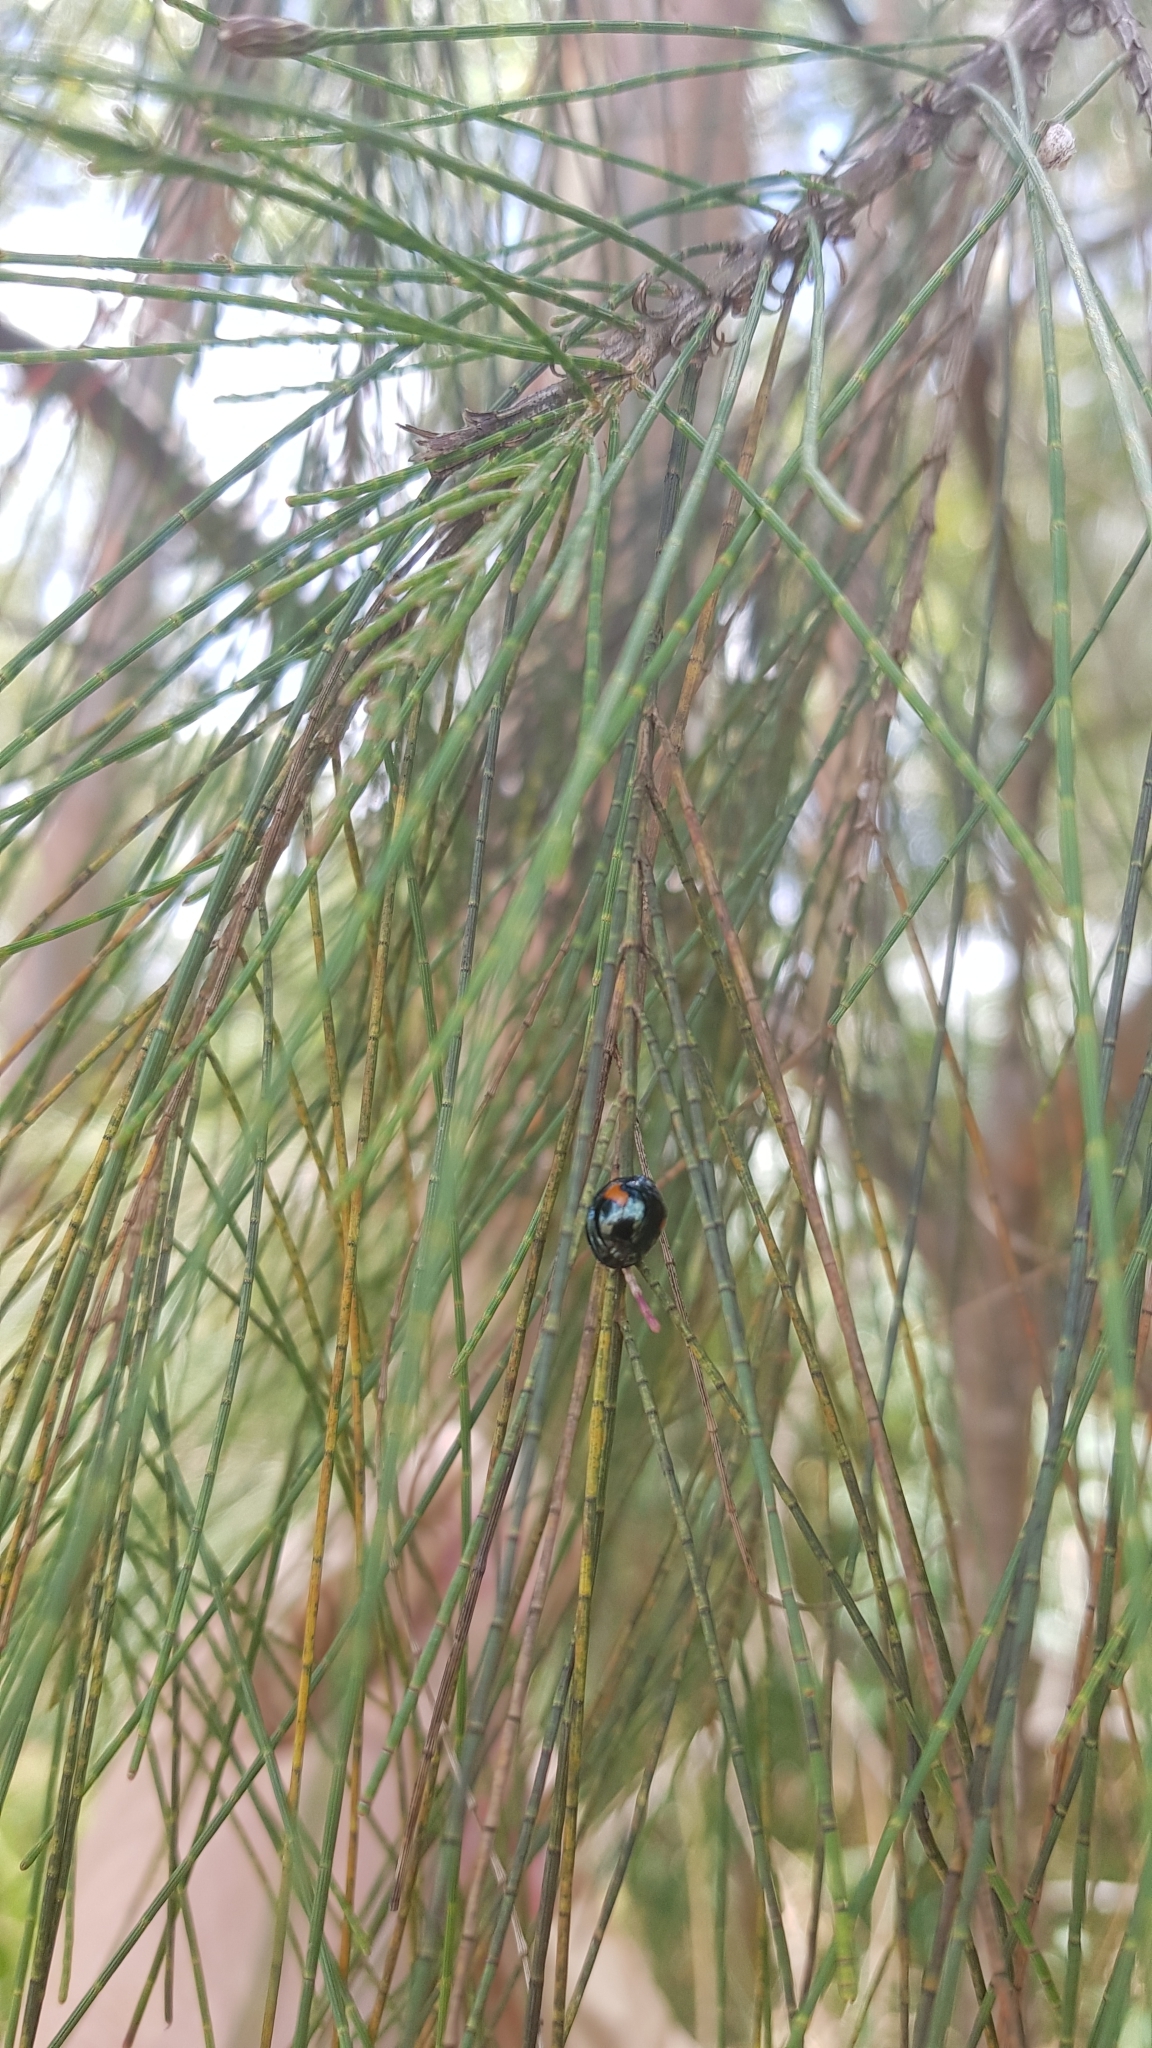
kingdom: Animalia
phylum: Arthropoda
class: Insecta
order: Coleoptera
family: Coccinellidae
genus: Orcus
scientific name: Orcus
